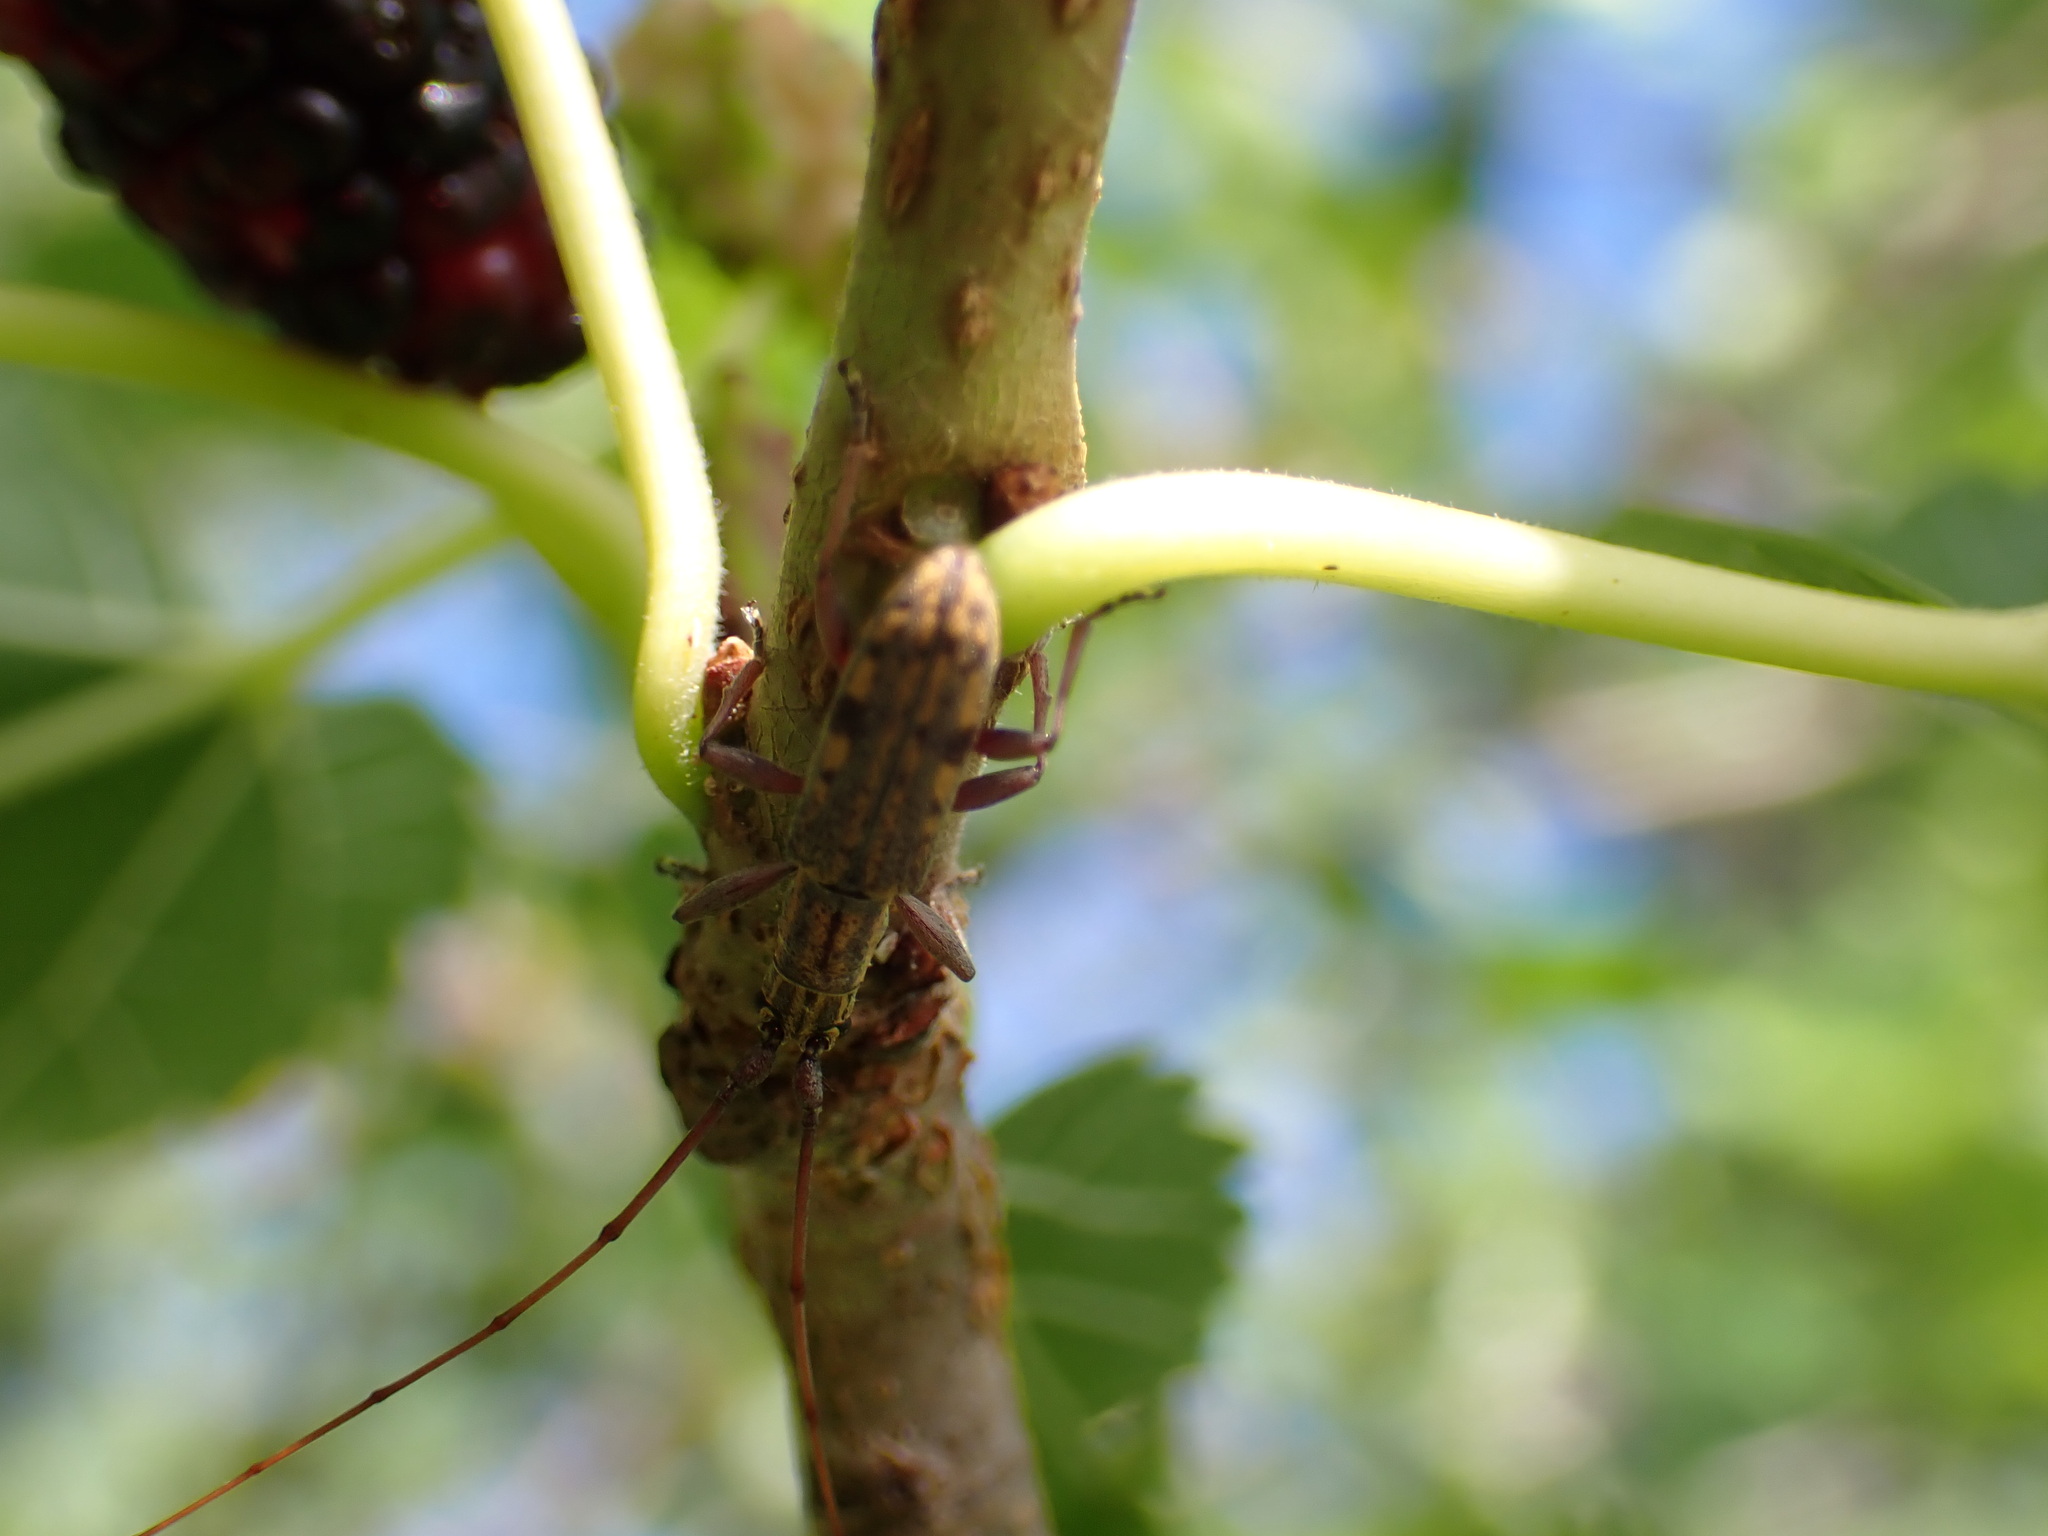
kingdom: Animalia
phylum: Arthropoda
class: Insecta
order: Coleoptera
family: Cerambycidae
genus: Dorcaschema
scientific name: Dorcaschema alternatum
